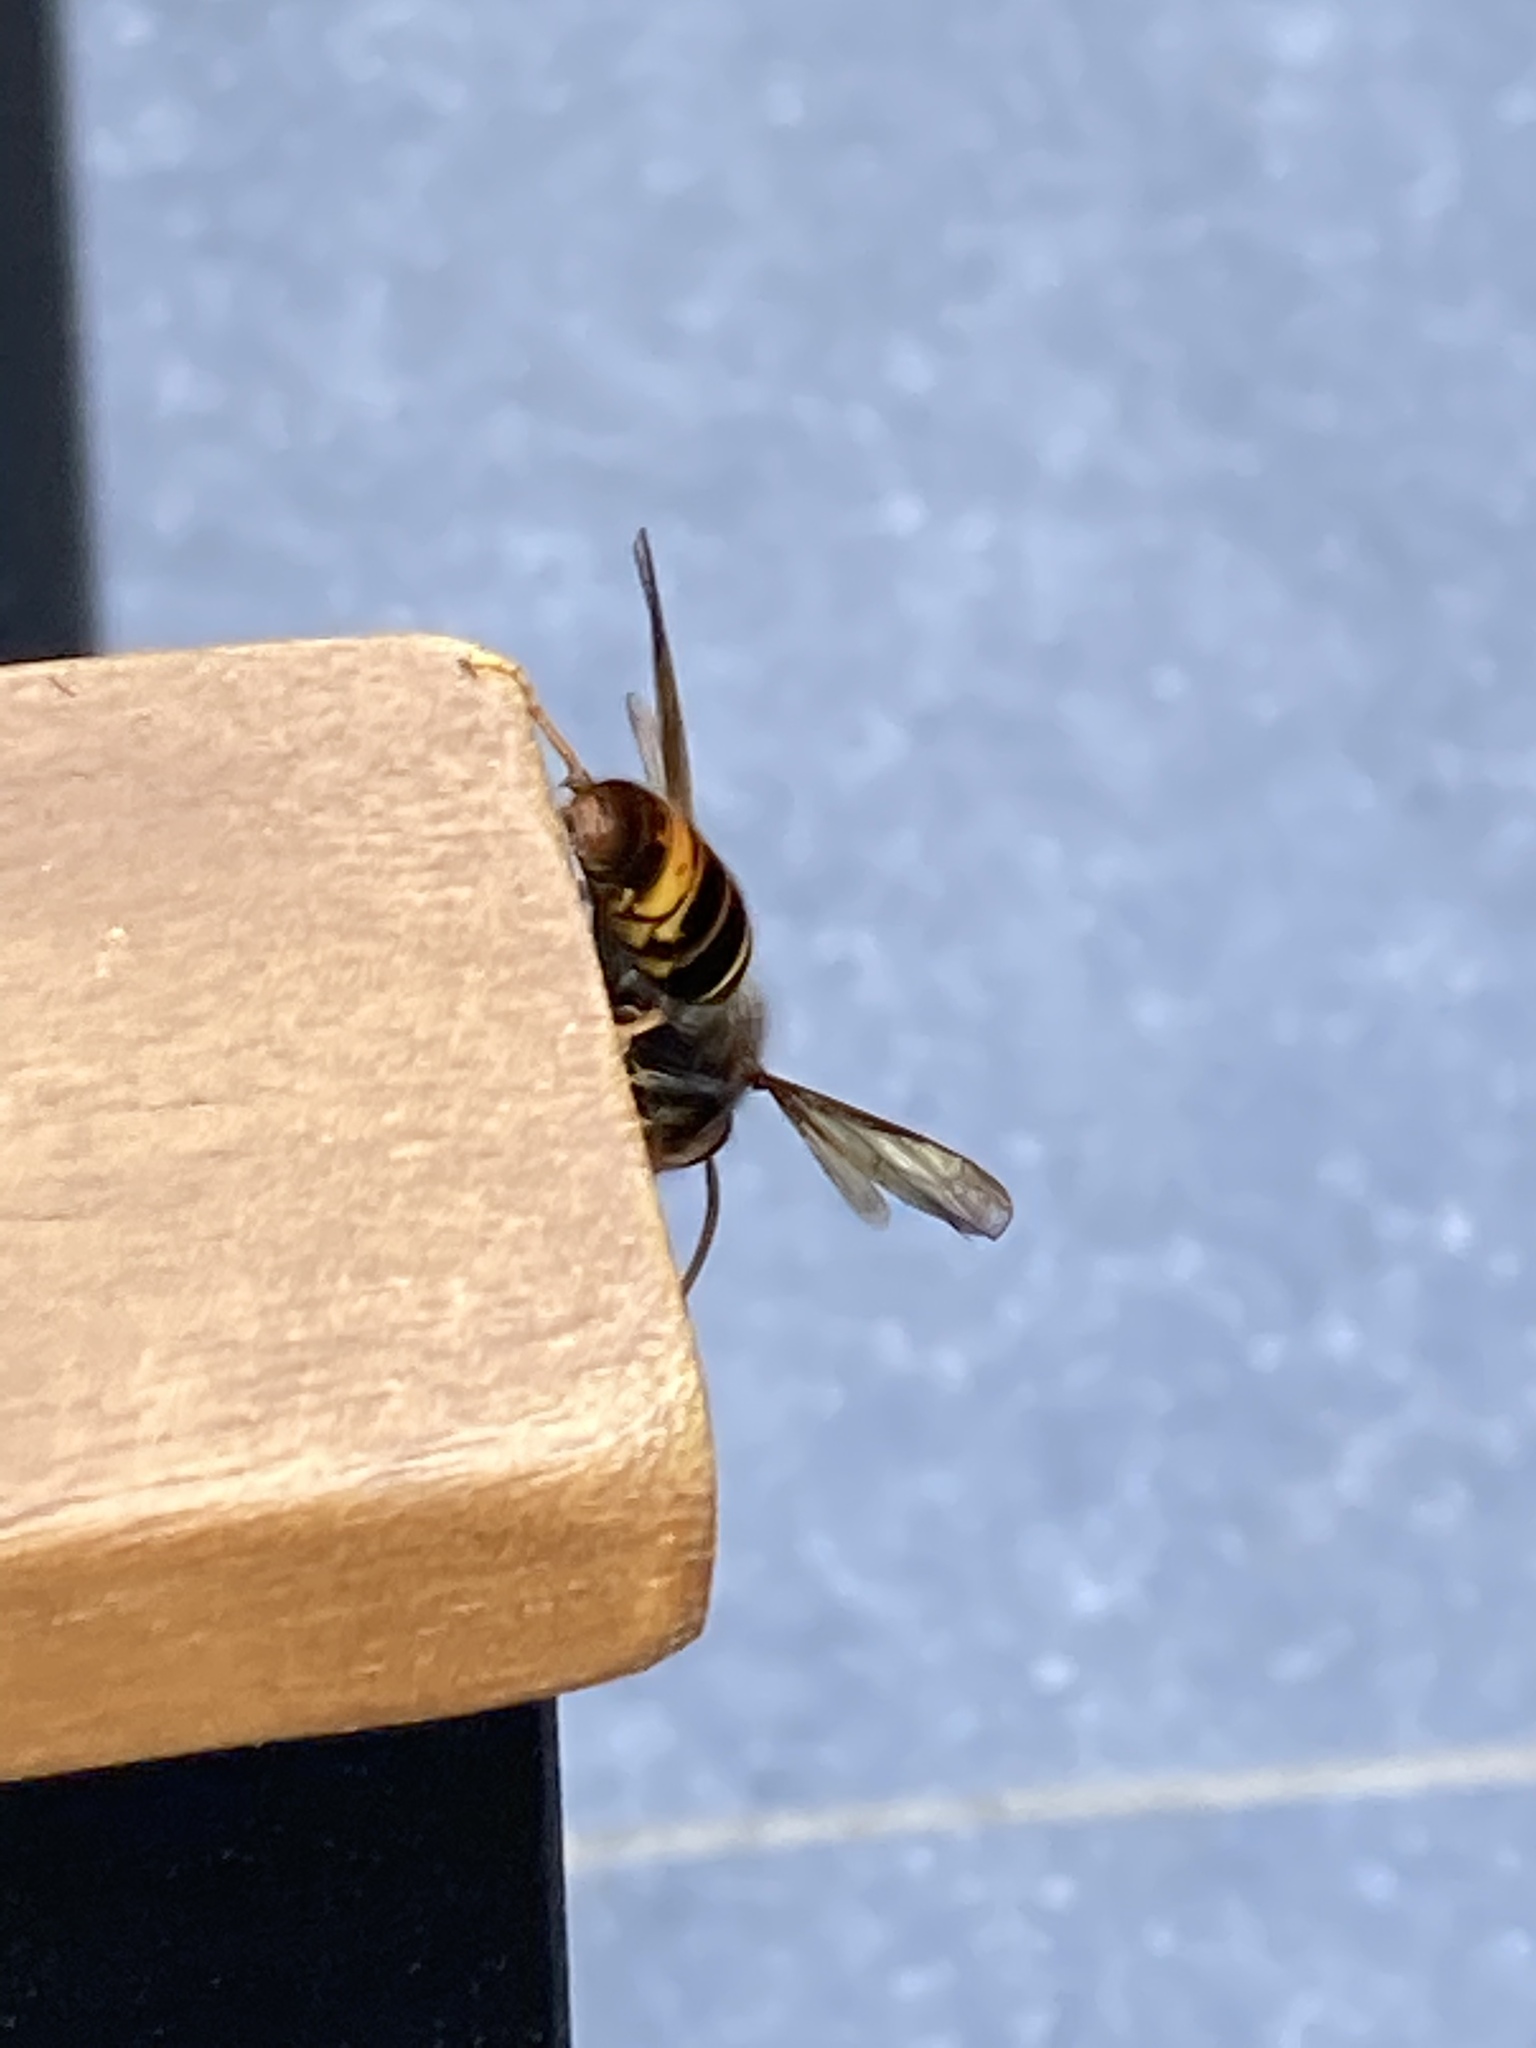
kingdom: Animalia
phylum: Arthropoda
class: Insecta
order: Hymenoptera
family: Vespidae
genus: Vespa
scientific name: Vespa velutina
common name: Asian hornet
